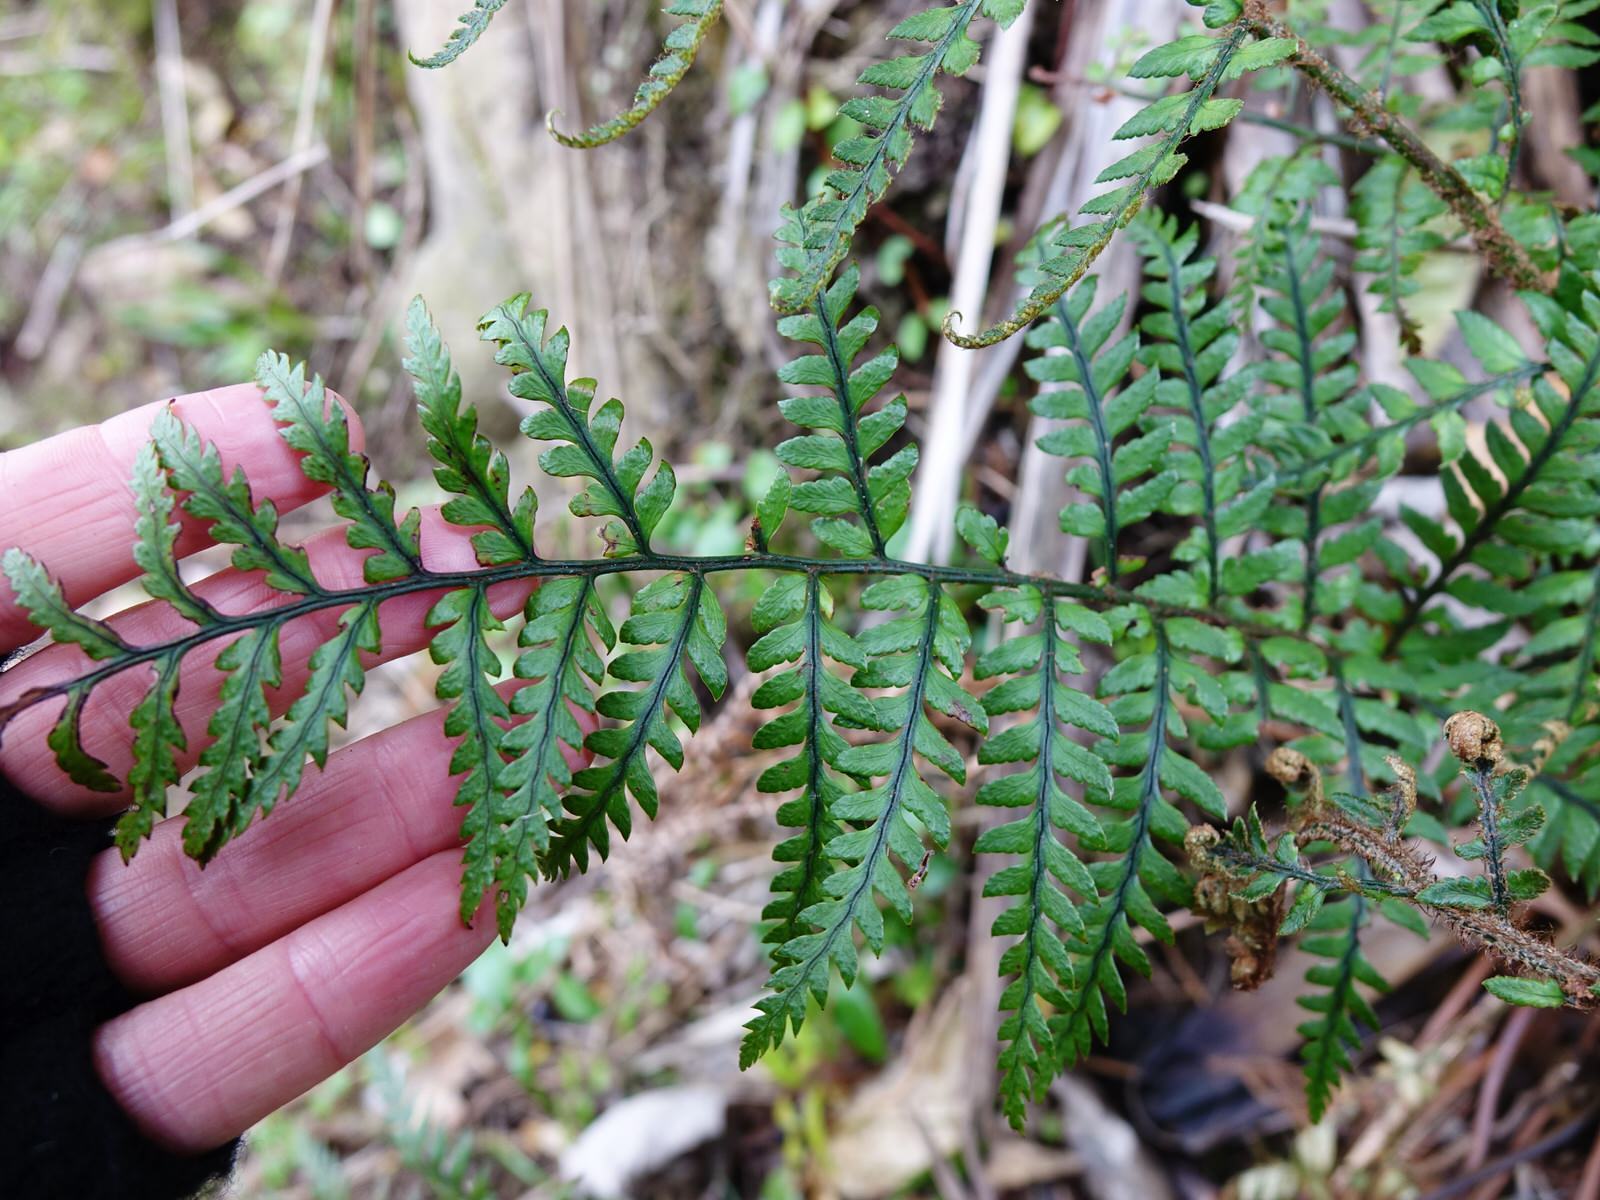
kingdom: Plantae
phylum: Tracheophyta
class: Polypodiopsida
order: Polypodiales
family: Dryopteridaceae
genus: Polystichum
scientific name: Polystichum neozelandicum
